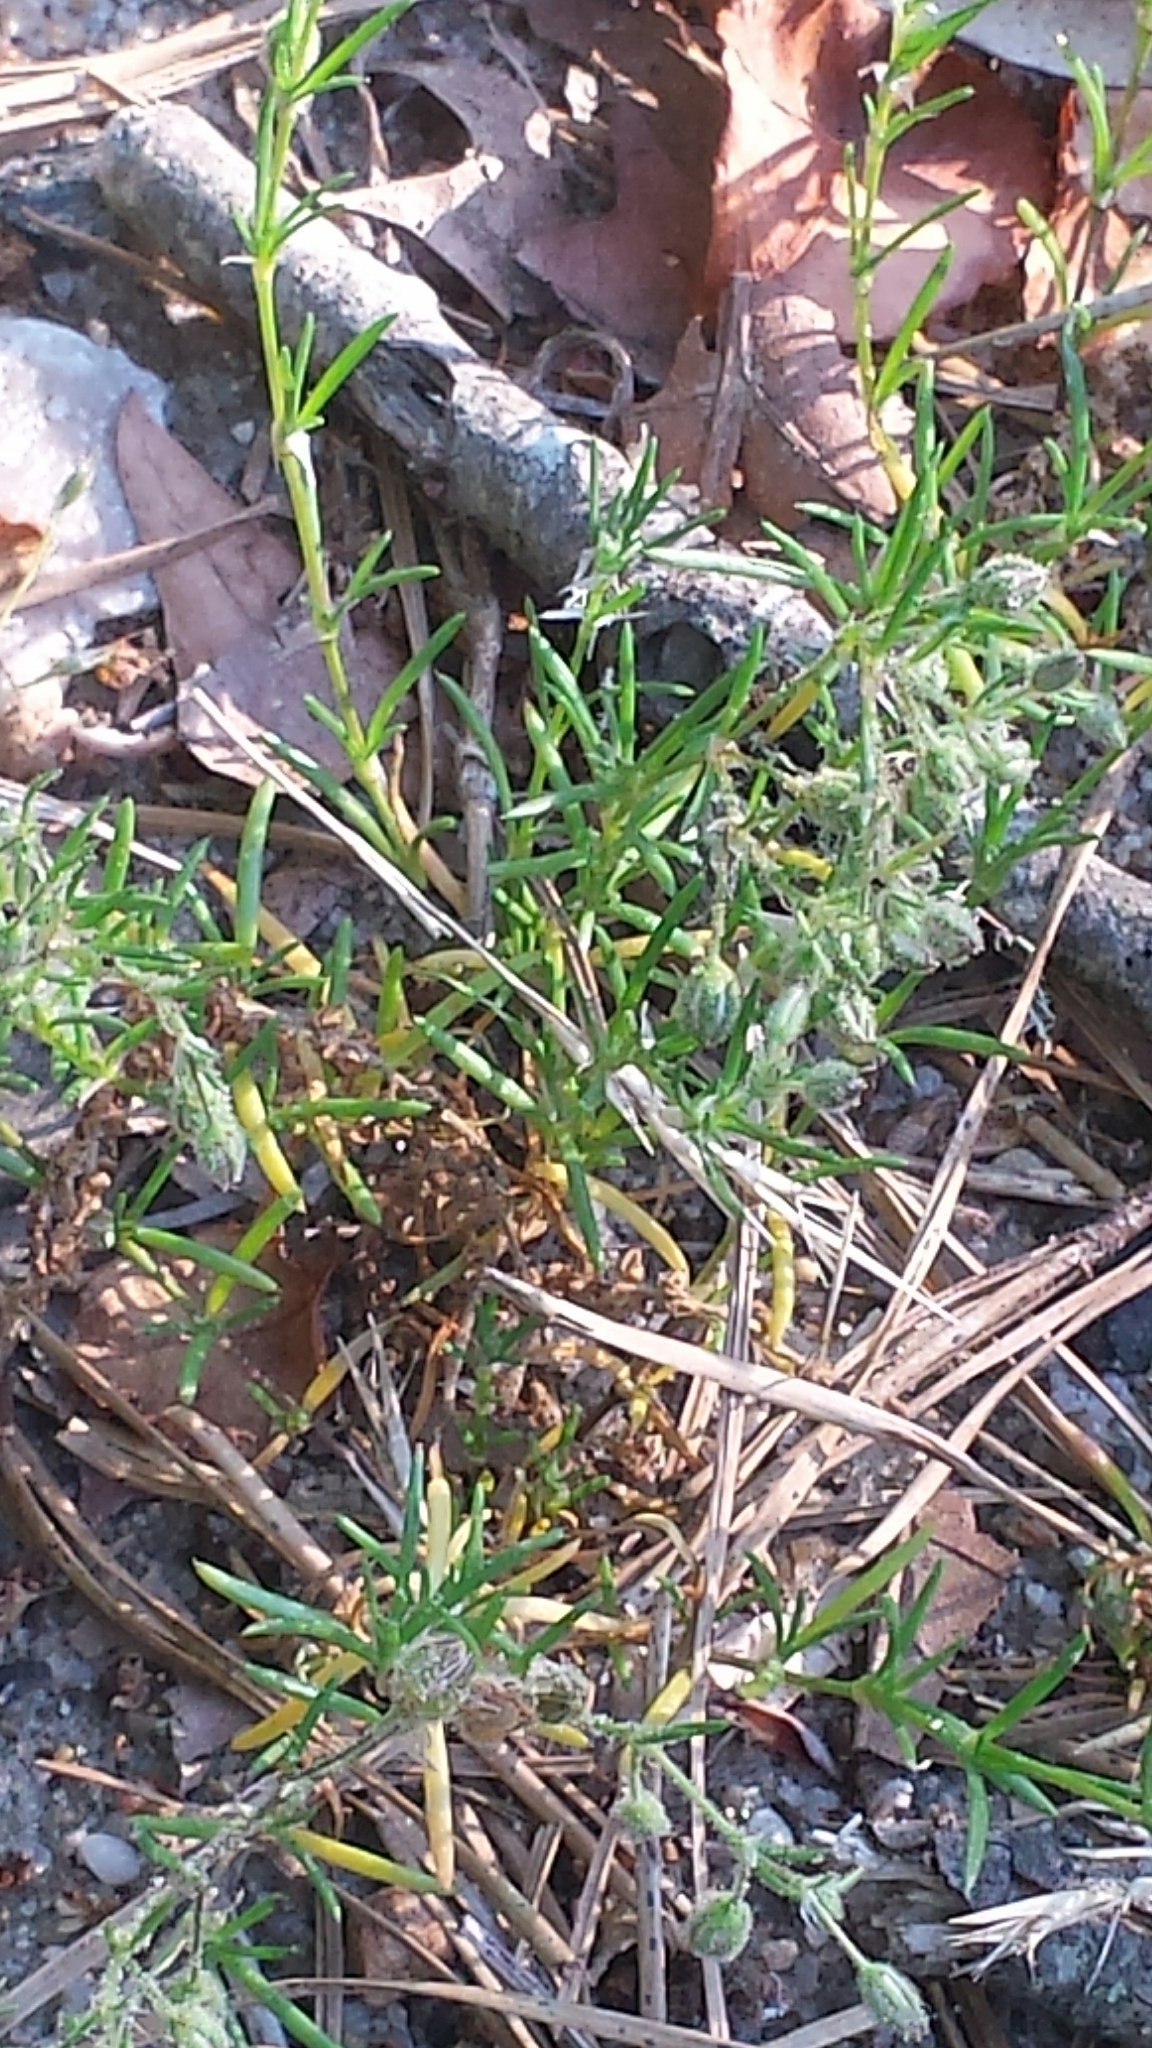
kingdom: Plantae
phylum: Tracheophyta
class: Magnoliopsida
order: Caryophyllales
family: Caryophyllaceae
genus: Spergularia
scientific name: Spergularia rubra
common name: Red sand-spurrey
